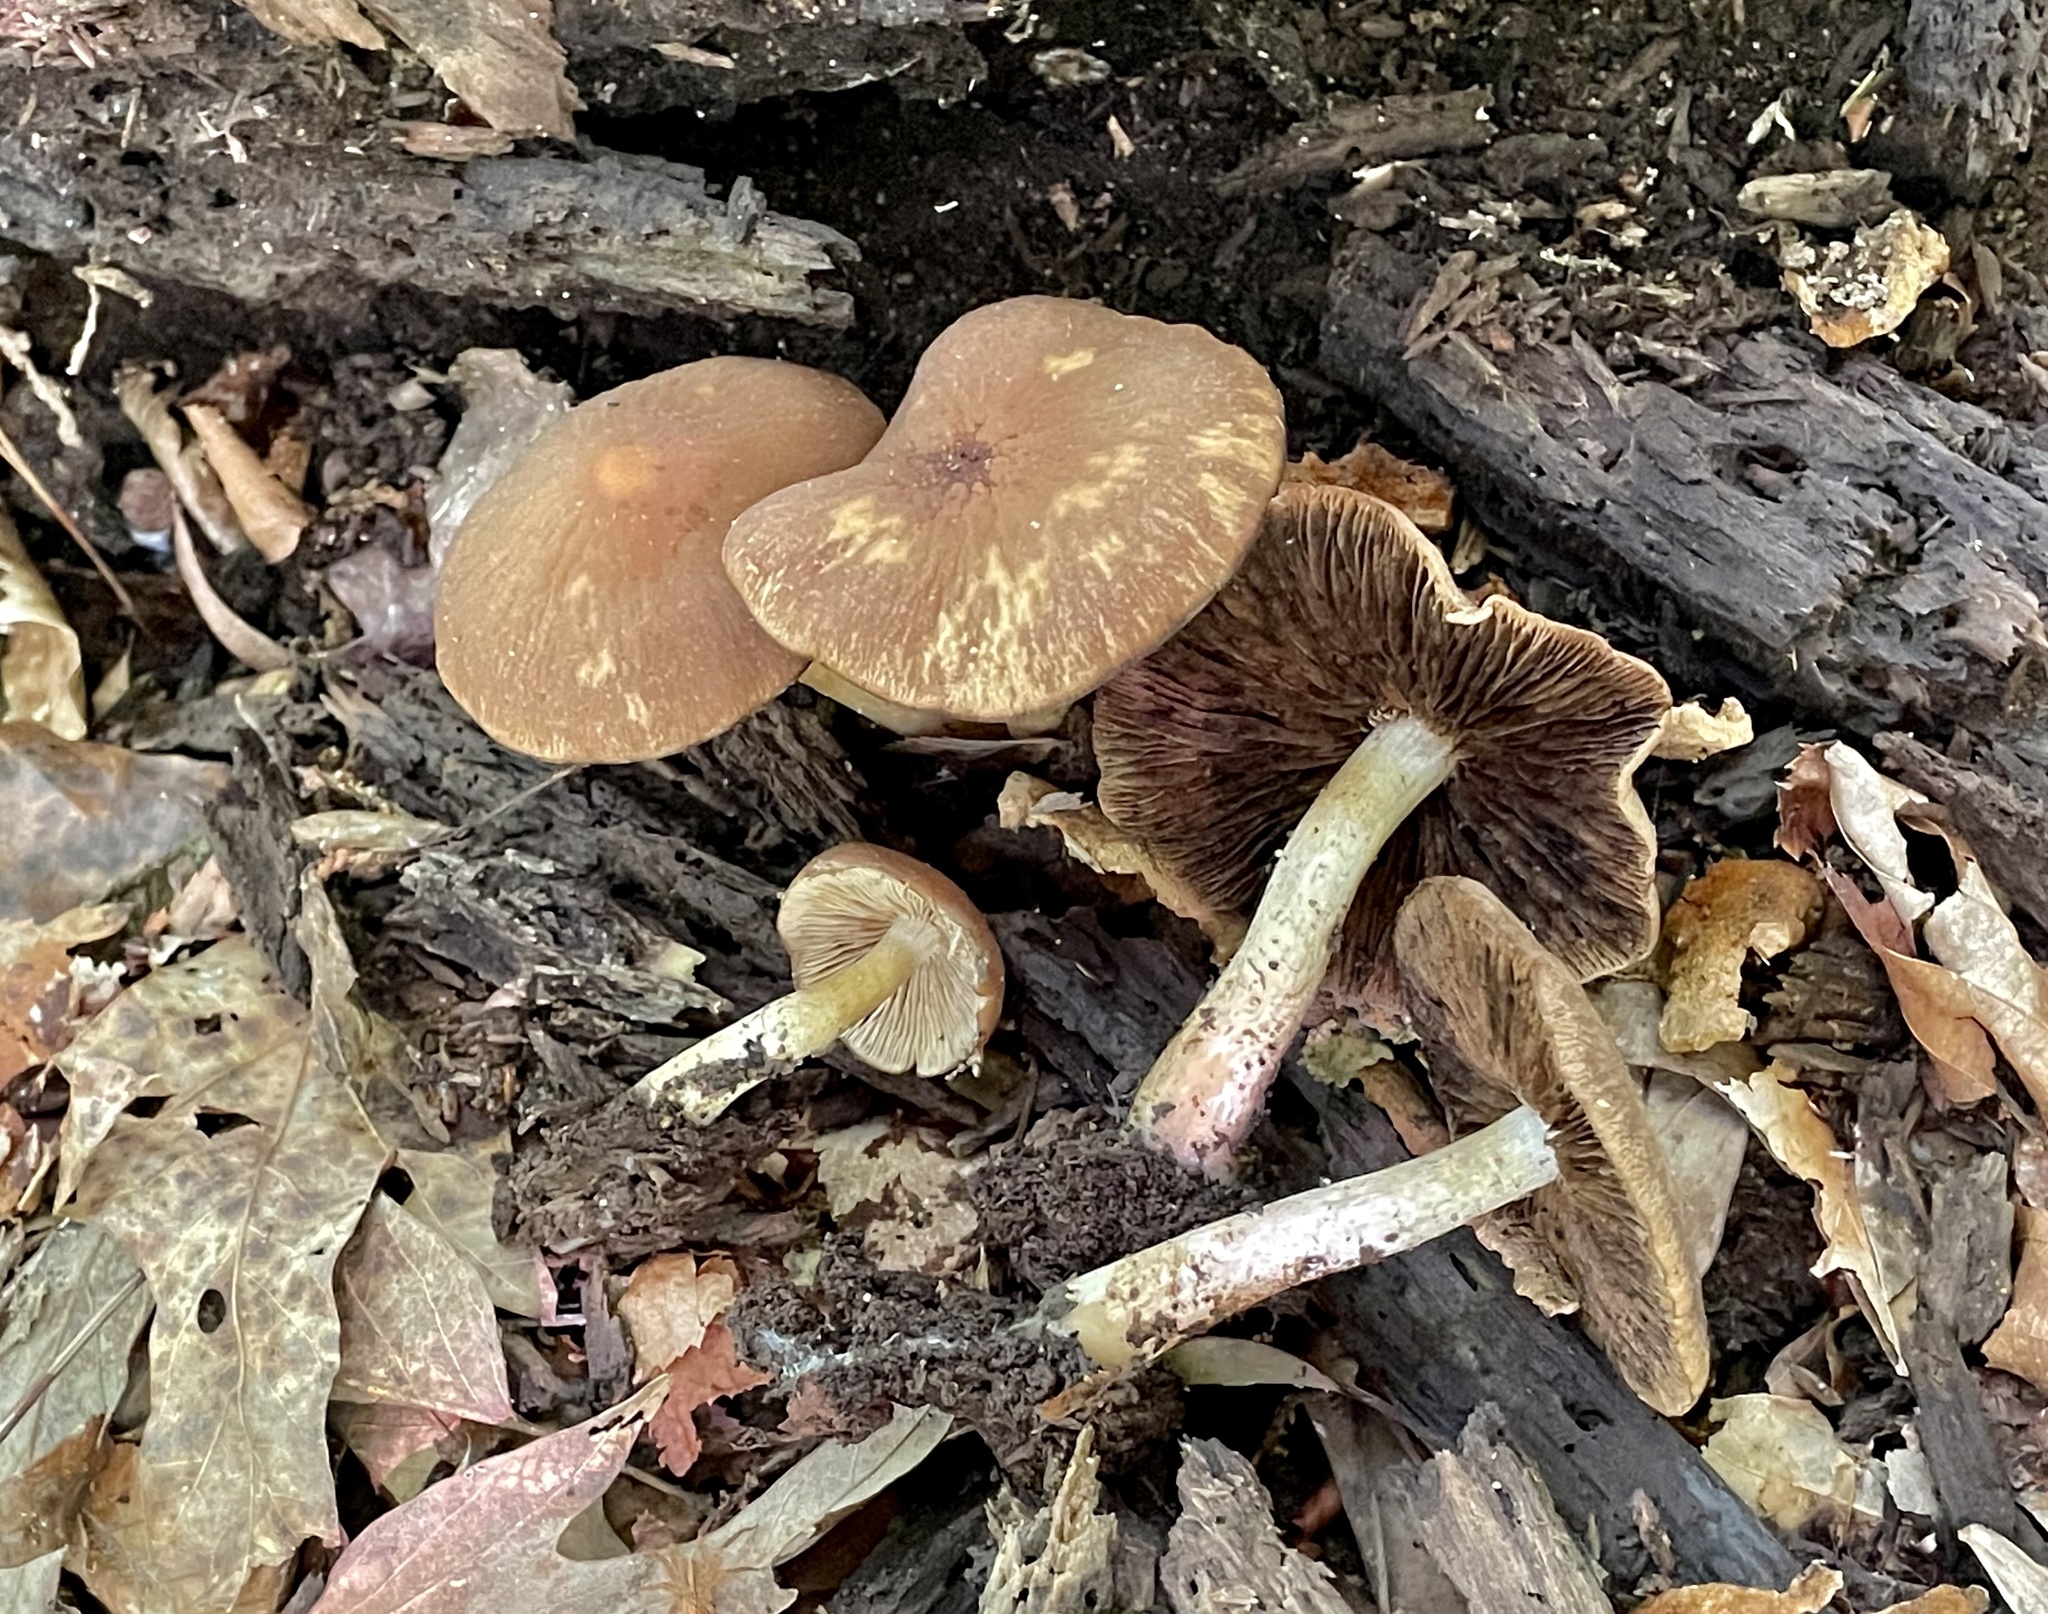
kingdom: Fungi
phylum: Basidiomycota
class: Agaricomycetes
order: Agaricales
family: Psathyrellaceae
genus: Typhrasa
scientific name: Typhrasa gossypina
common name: Wrinkled psathyrella
